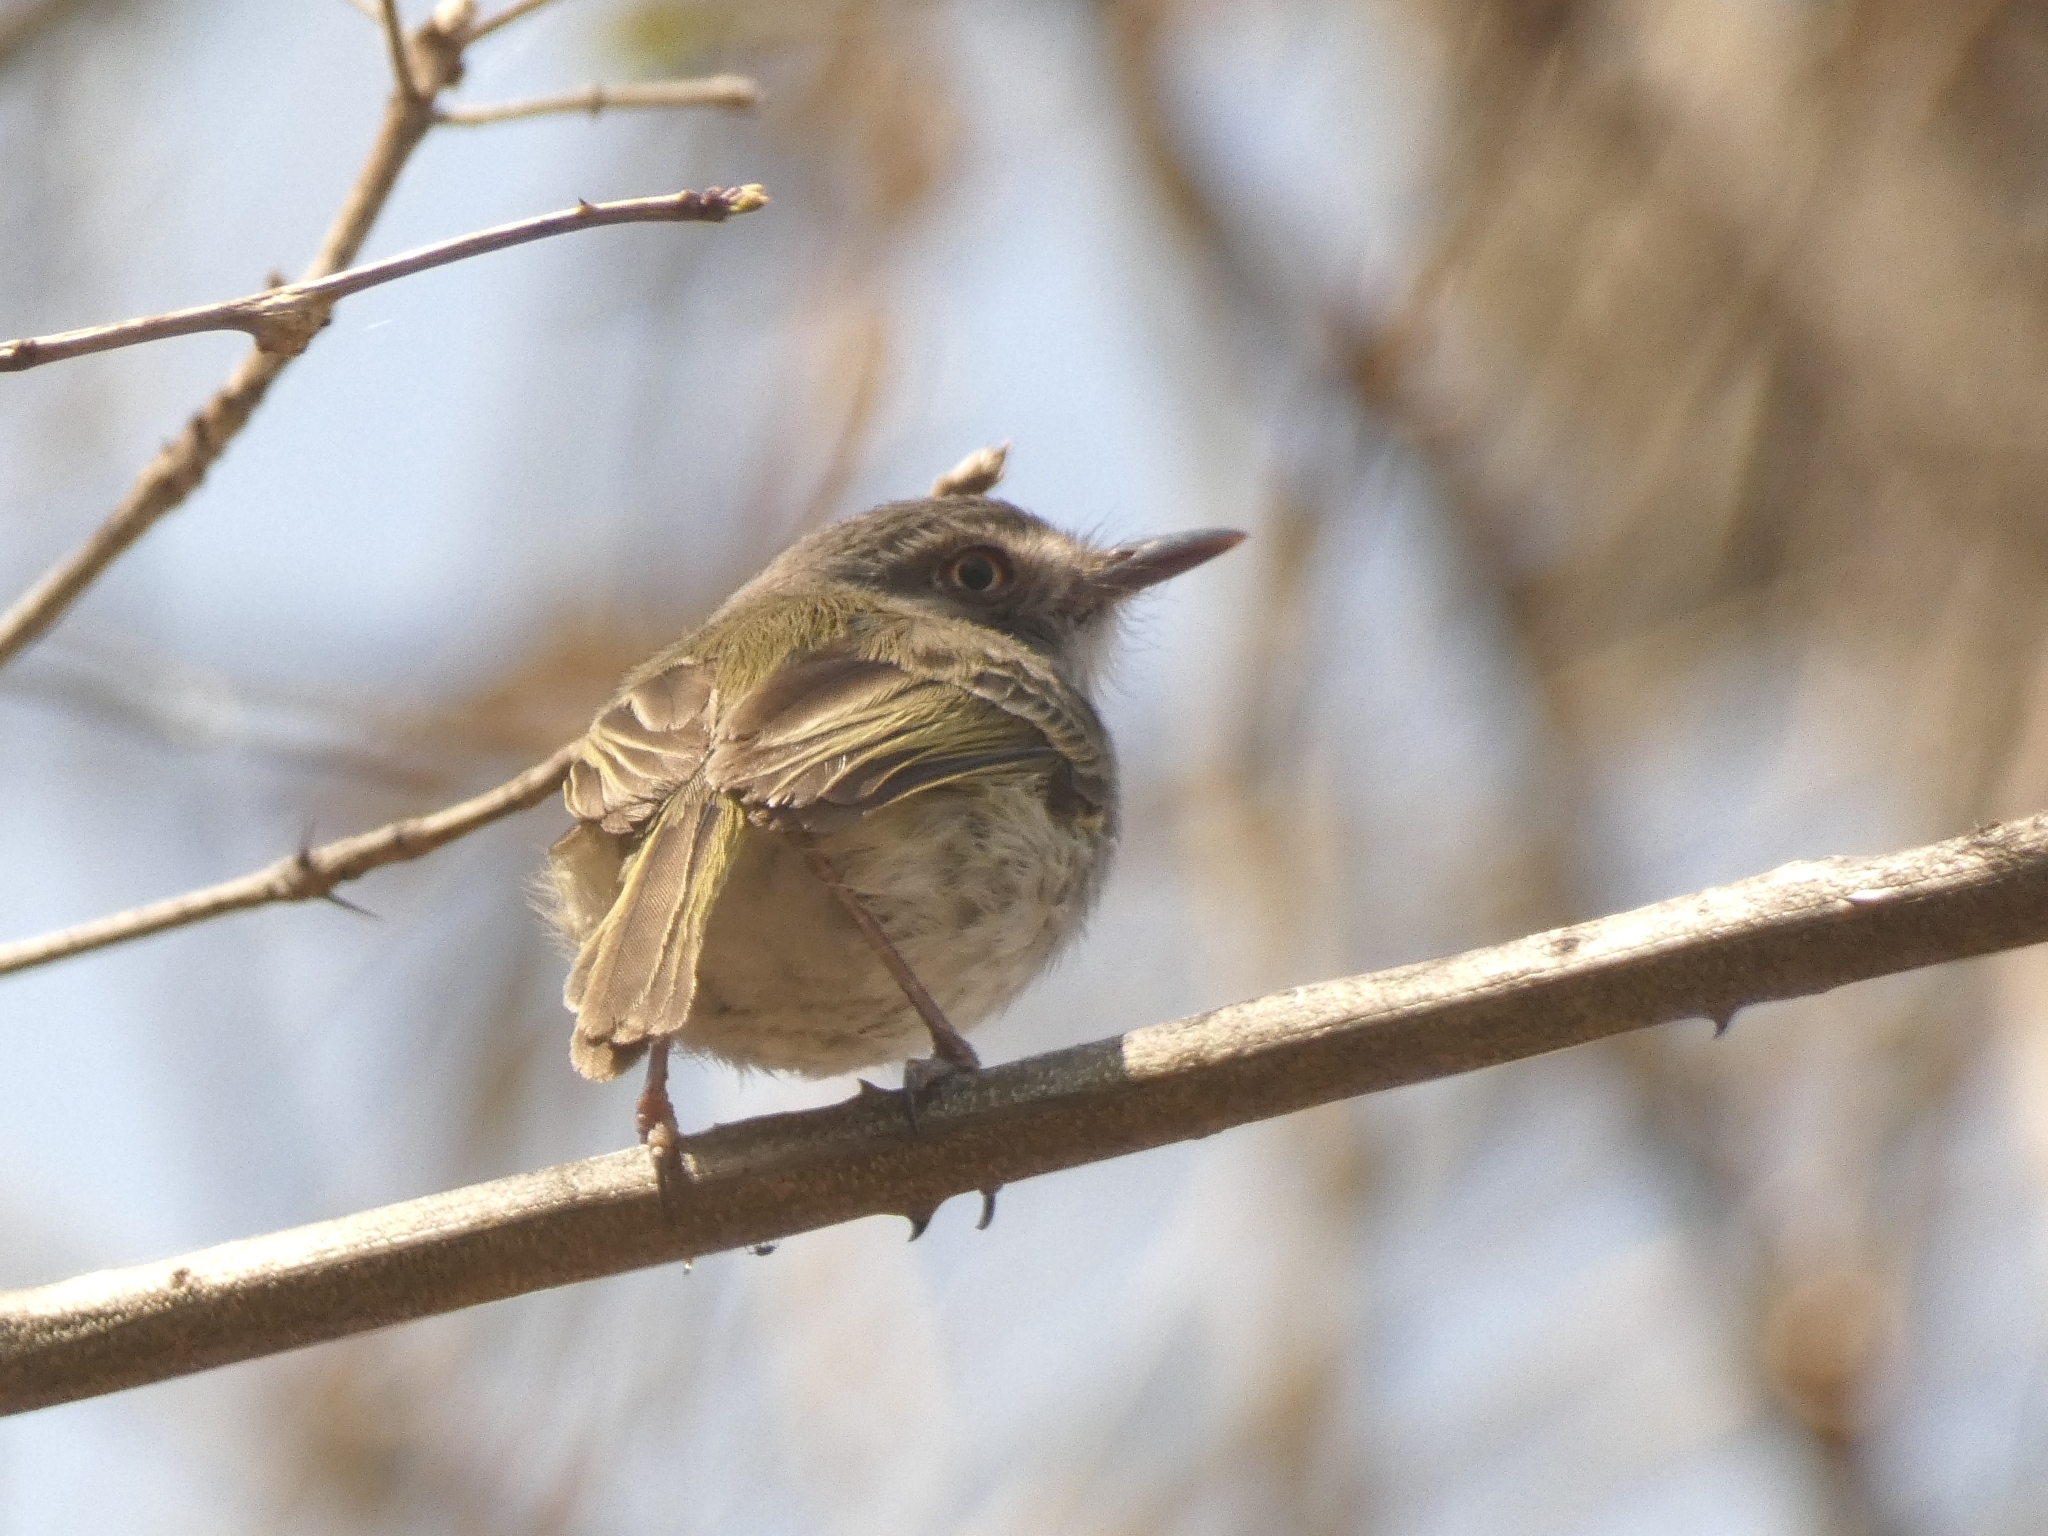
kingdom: Animalia
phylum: Chordata
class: Aves
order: Passeriformes
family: Tyrannidae
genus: Hemitriccus
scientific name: Hemitriccus margaritaceiventer
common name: Pearly-vented tody-tyrant
